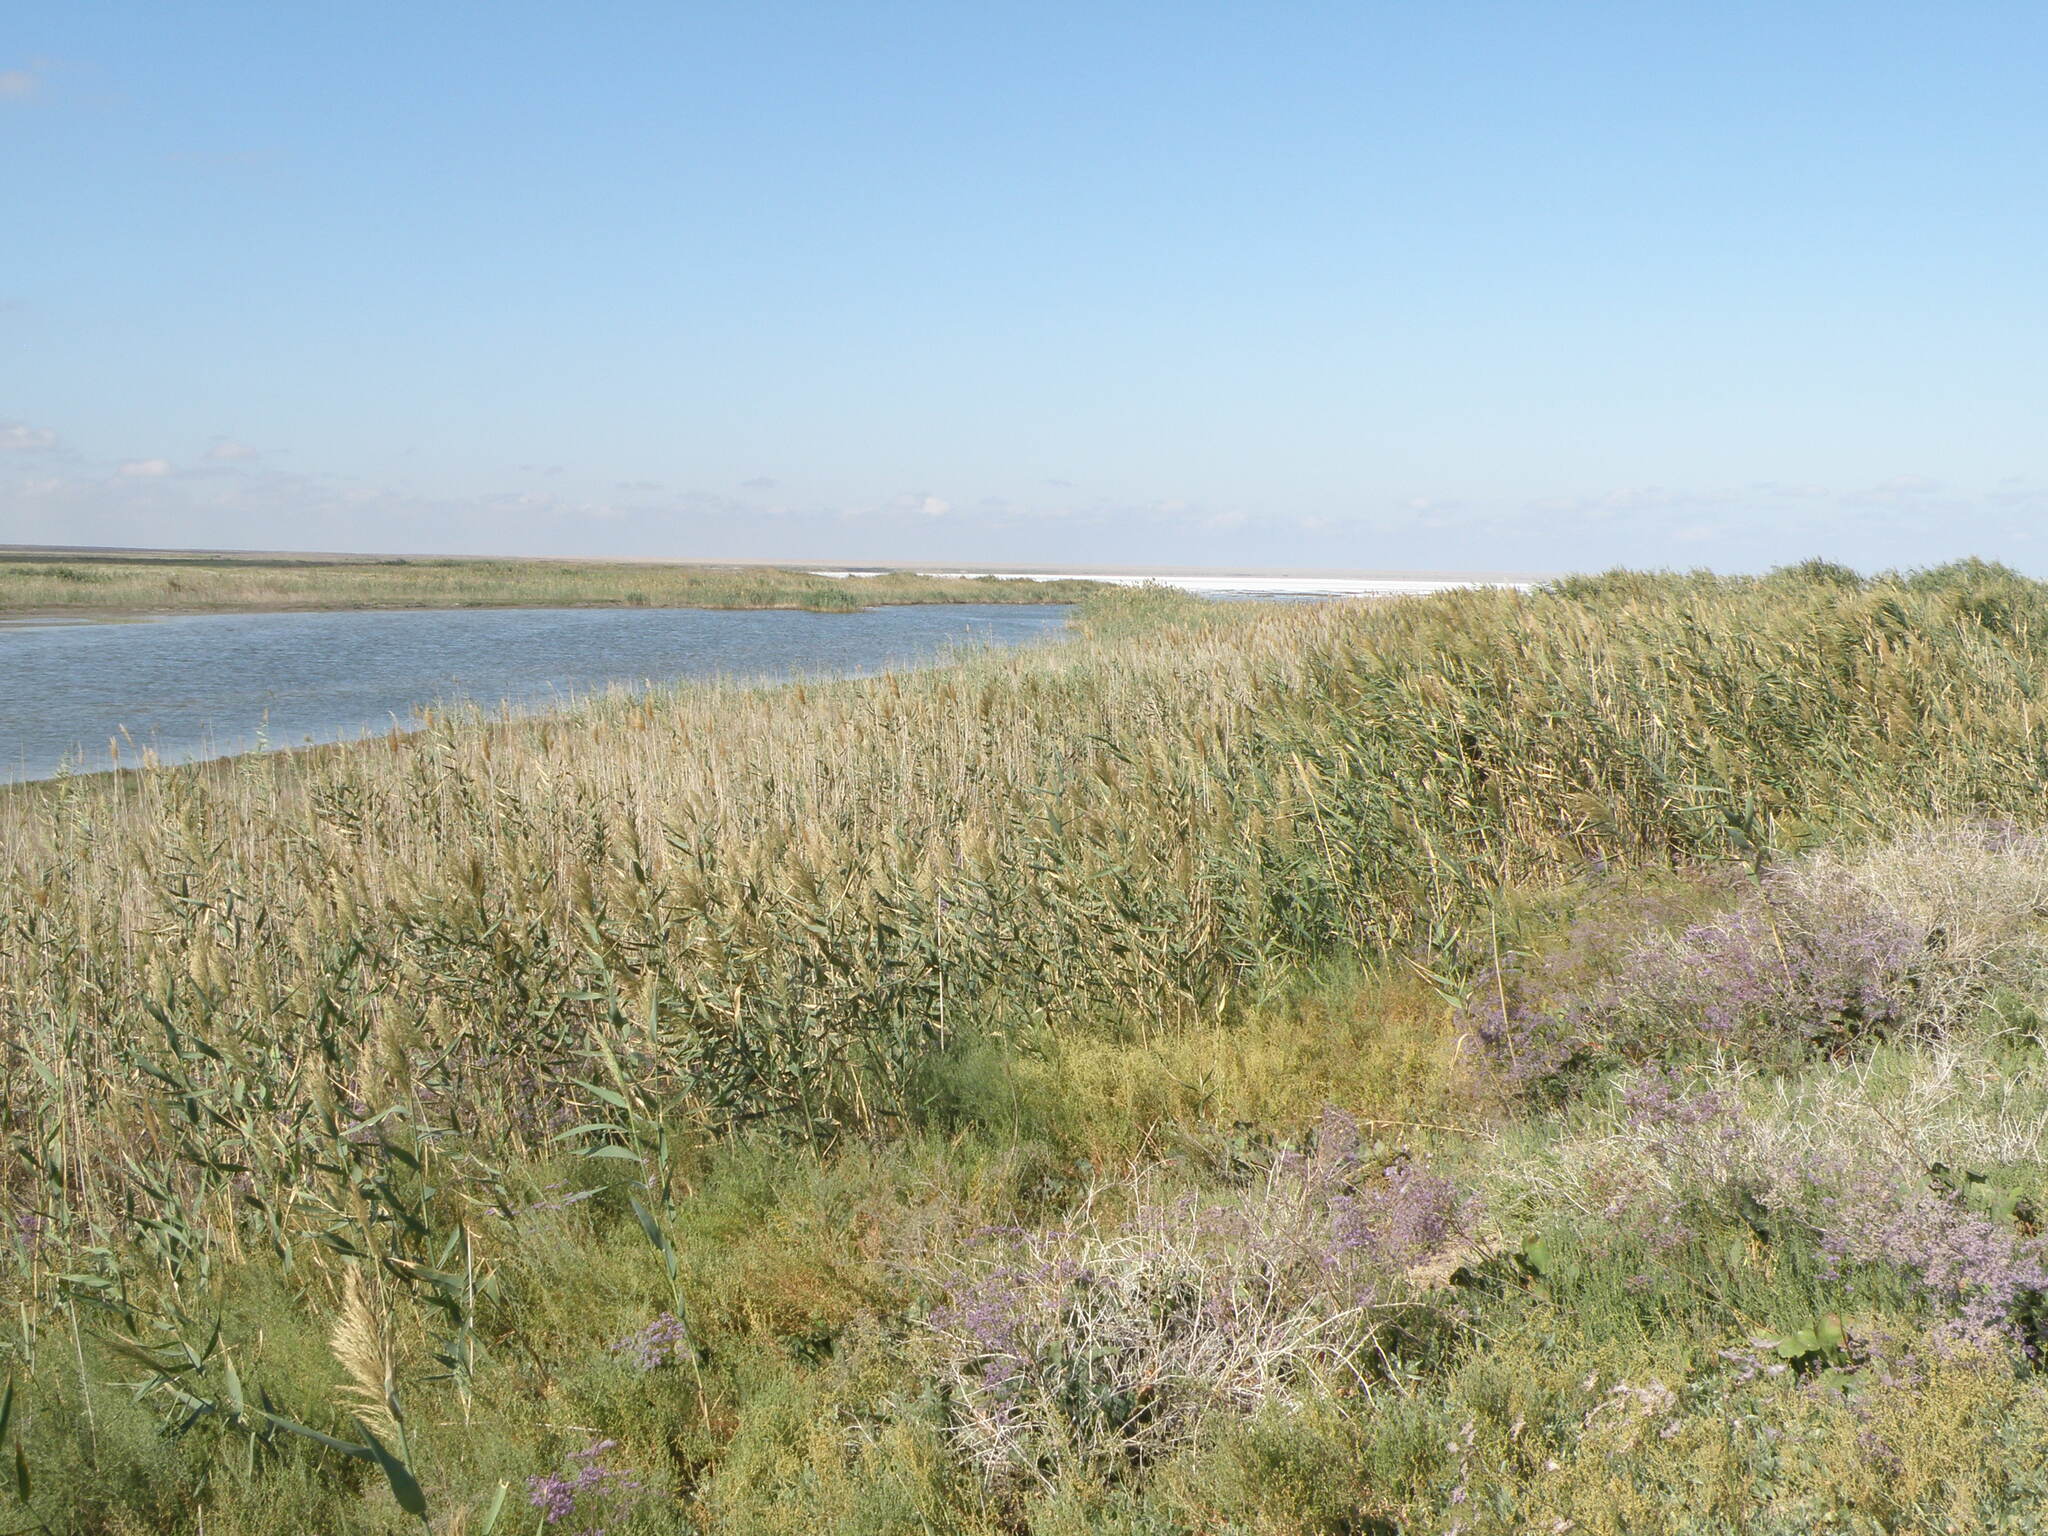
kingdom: Plantae
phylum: Tracheophyta
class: Liliopsida
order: Poales
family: Poaceae
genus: Phragmites
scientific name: Phragmites australis
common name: Common reed
